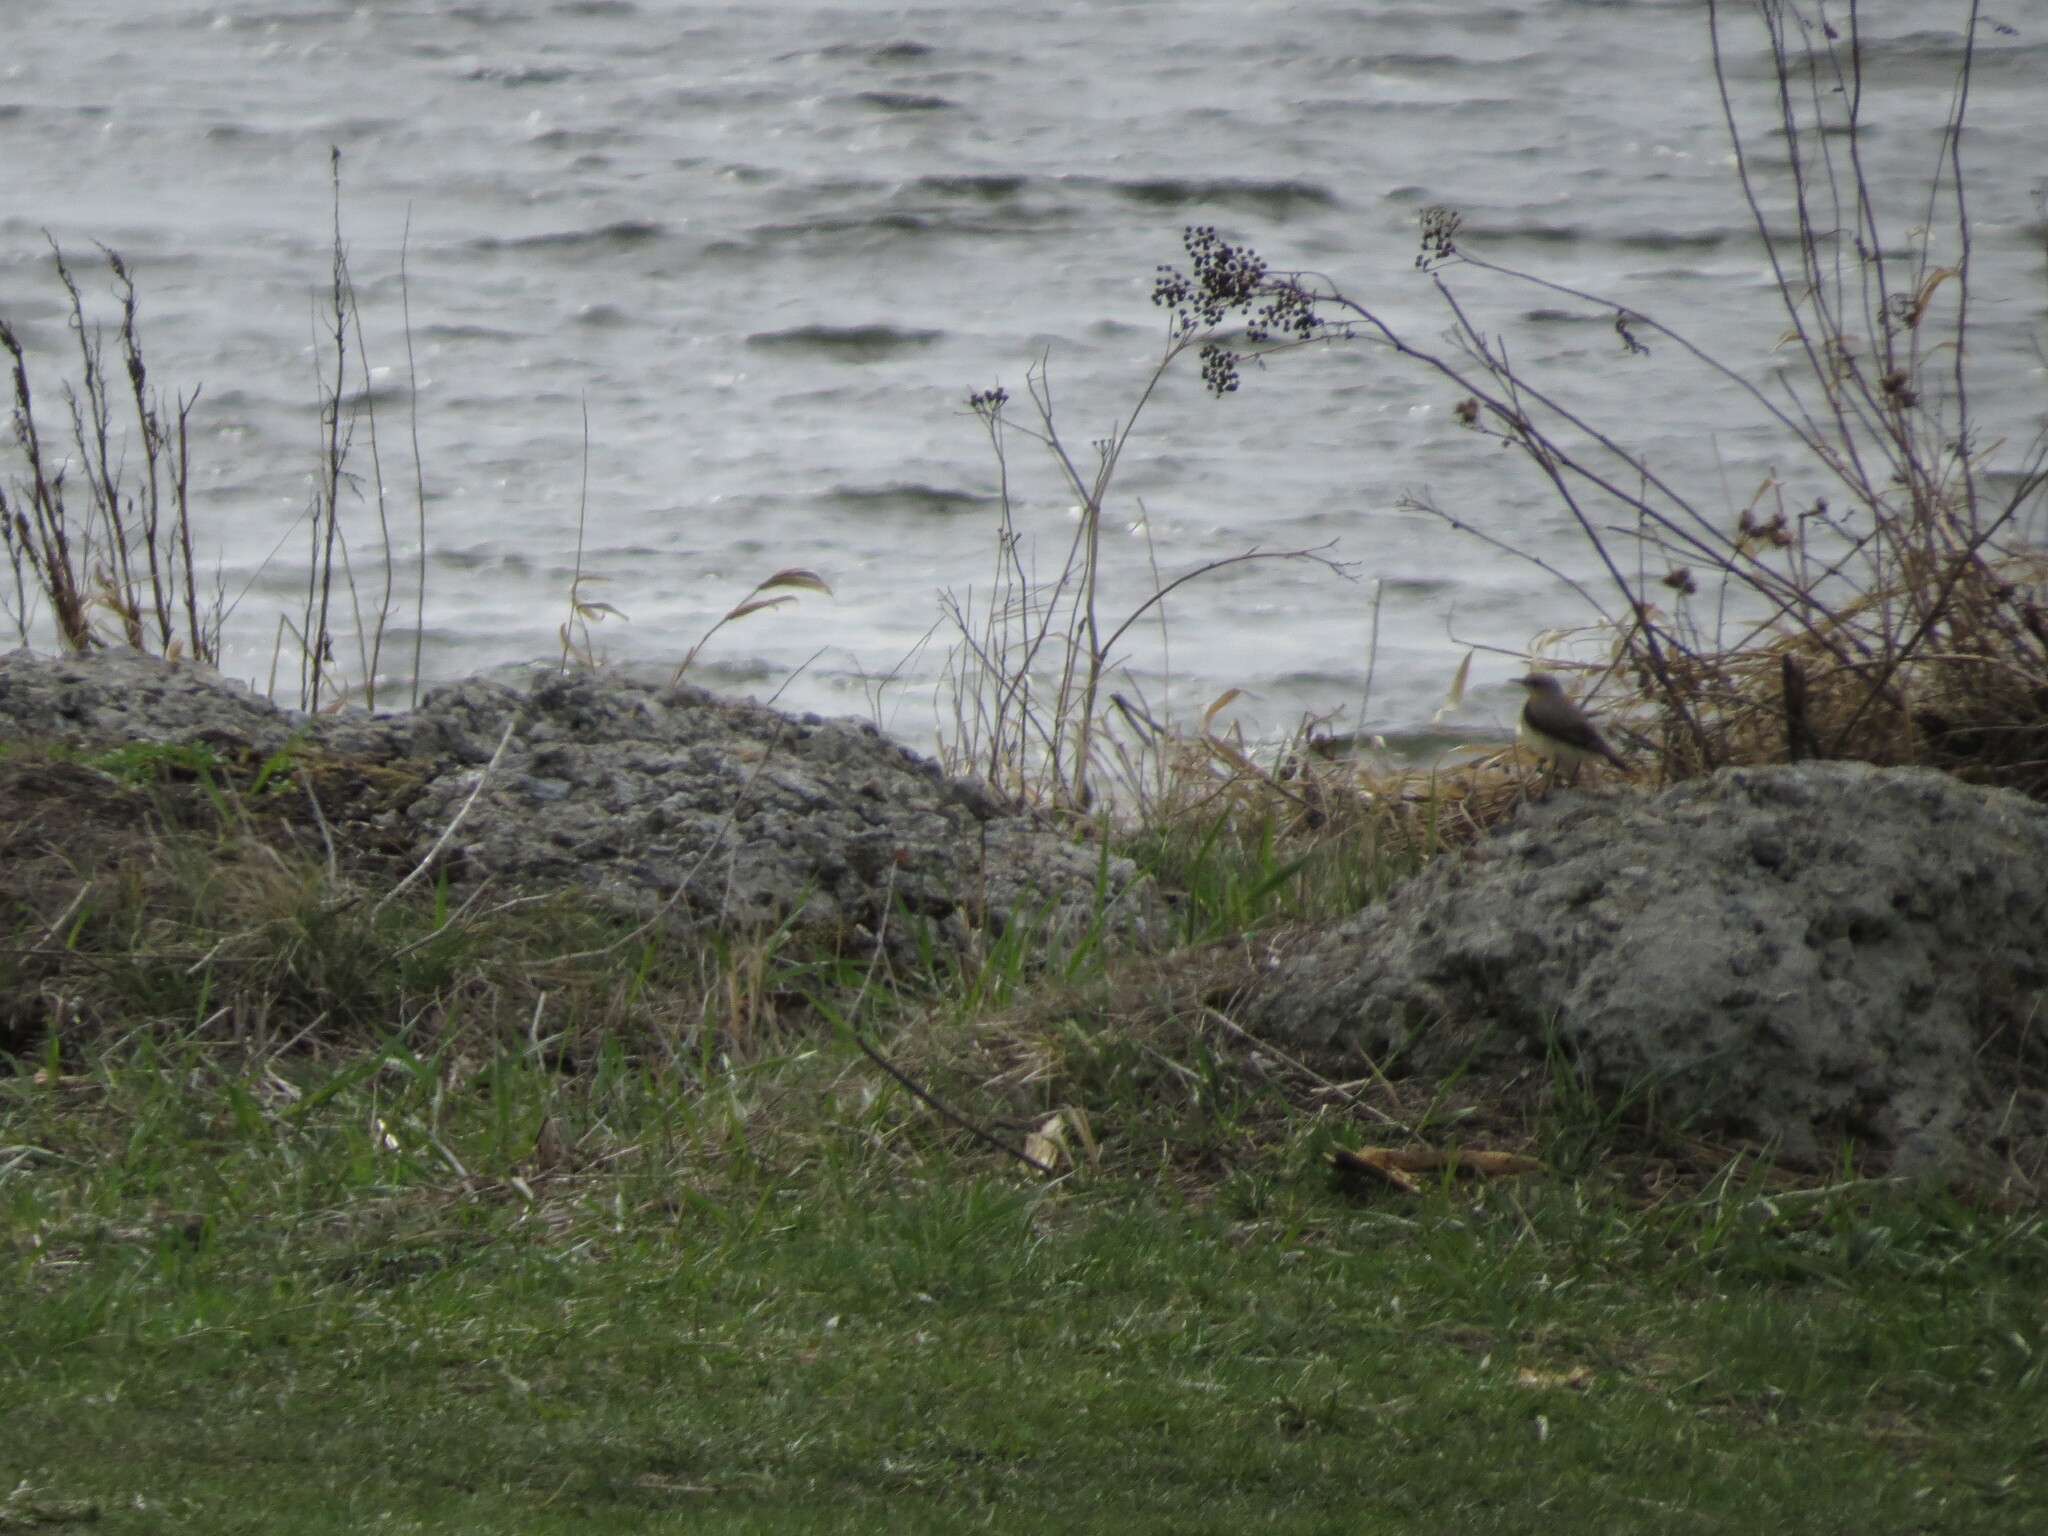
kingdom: Animalia
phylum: Chordata
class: Aves
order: Passeriformes
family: Muscicapidae
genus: Oenanthe
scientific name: Oenanthe oenanthe
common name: Northern wheatear
